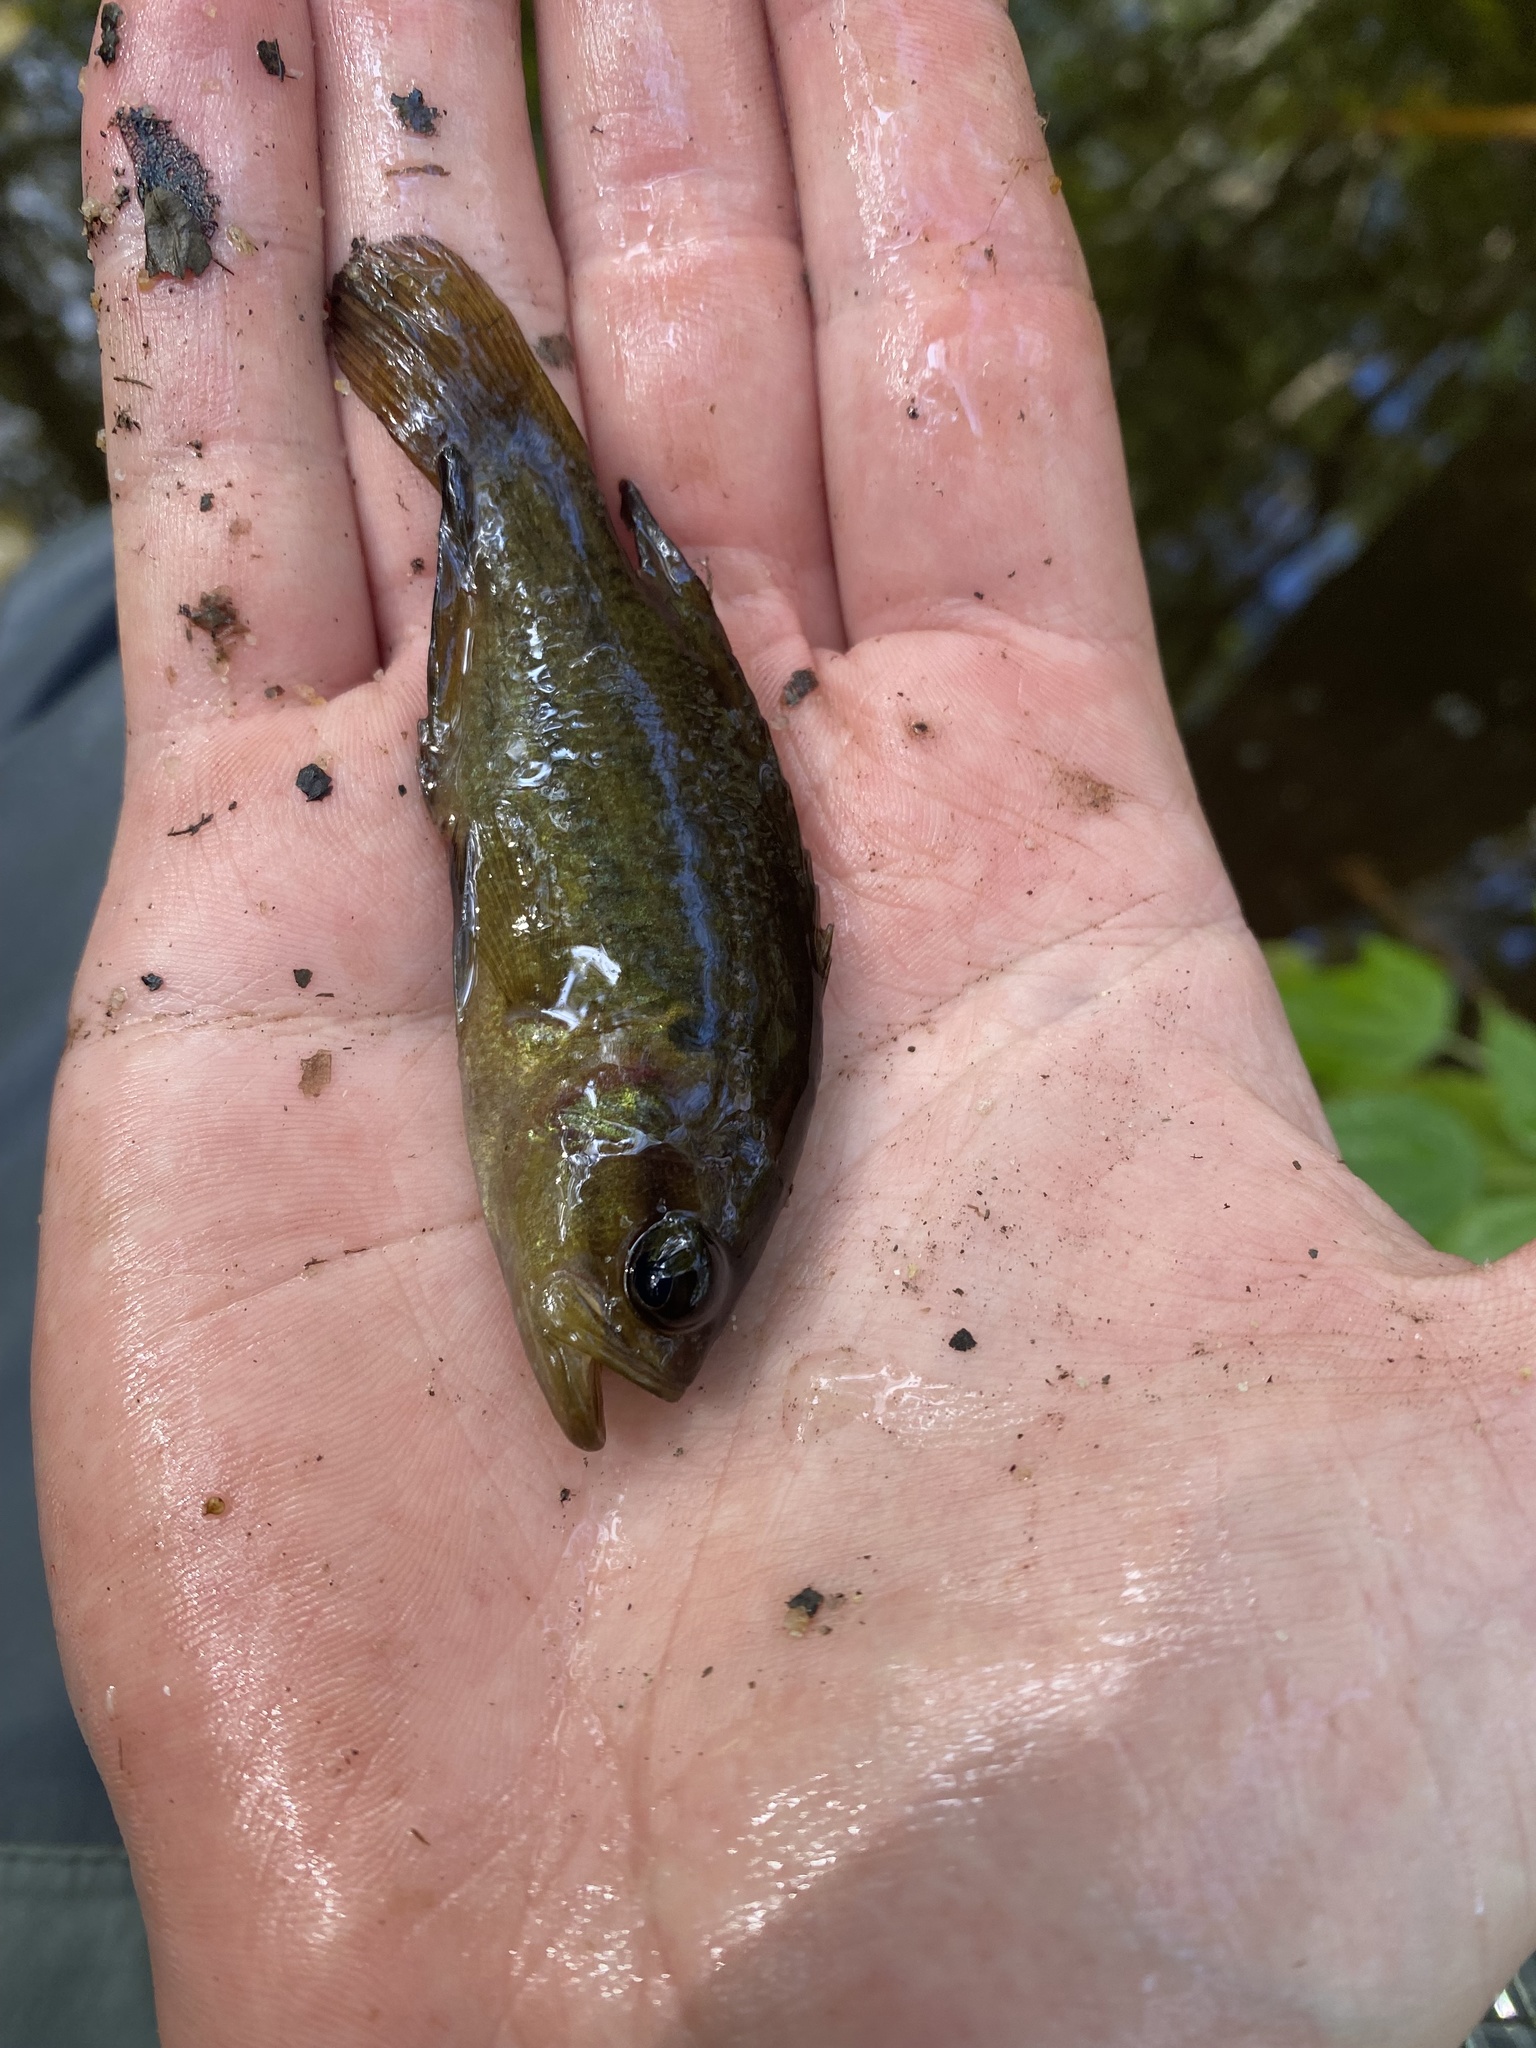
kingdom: Animalia
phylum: Chordata
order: Perciformes
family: Centrarchidae
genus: Acantharchus
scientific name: Acantharchus pomotis
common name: Mud sunfish
